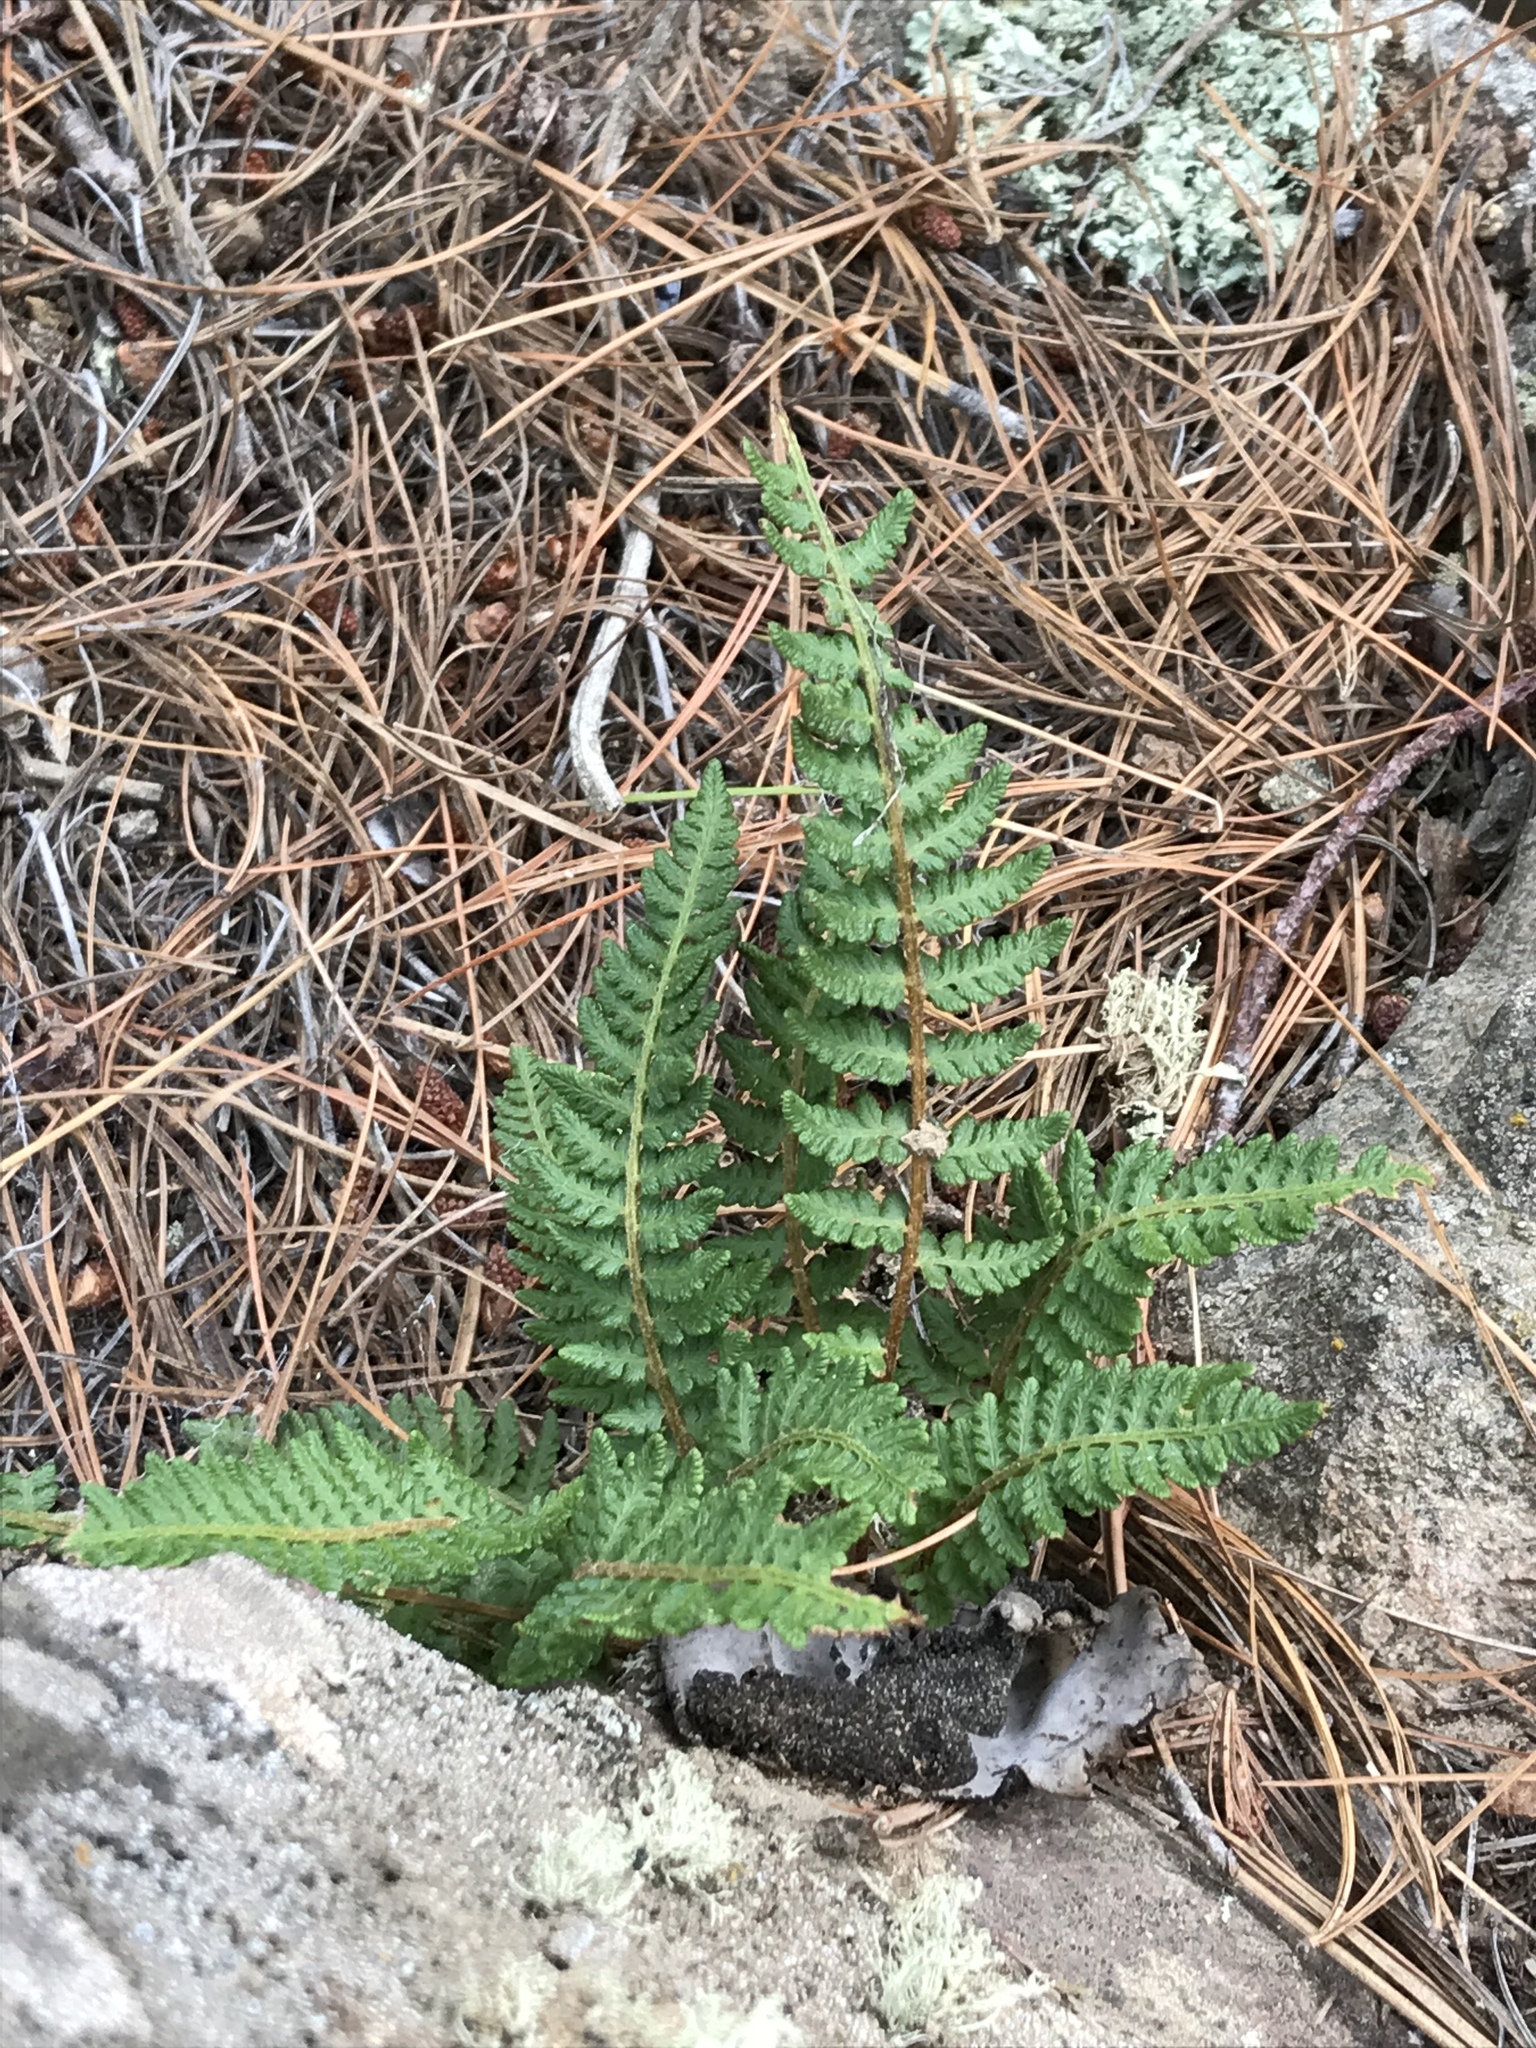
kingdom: Plantae
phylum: Tracheophyta
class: Polypodiopsida
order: Polypodiales
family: Woodsiaceae
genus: Woodsia
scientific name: Woodsia ilvensis
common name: Fragrant woodsia
